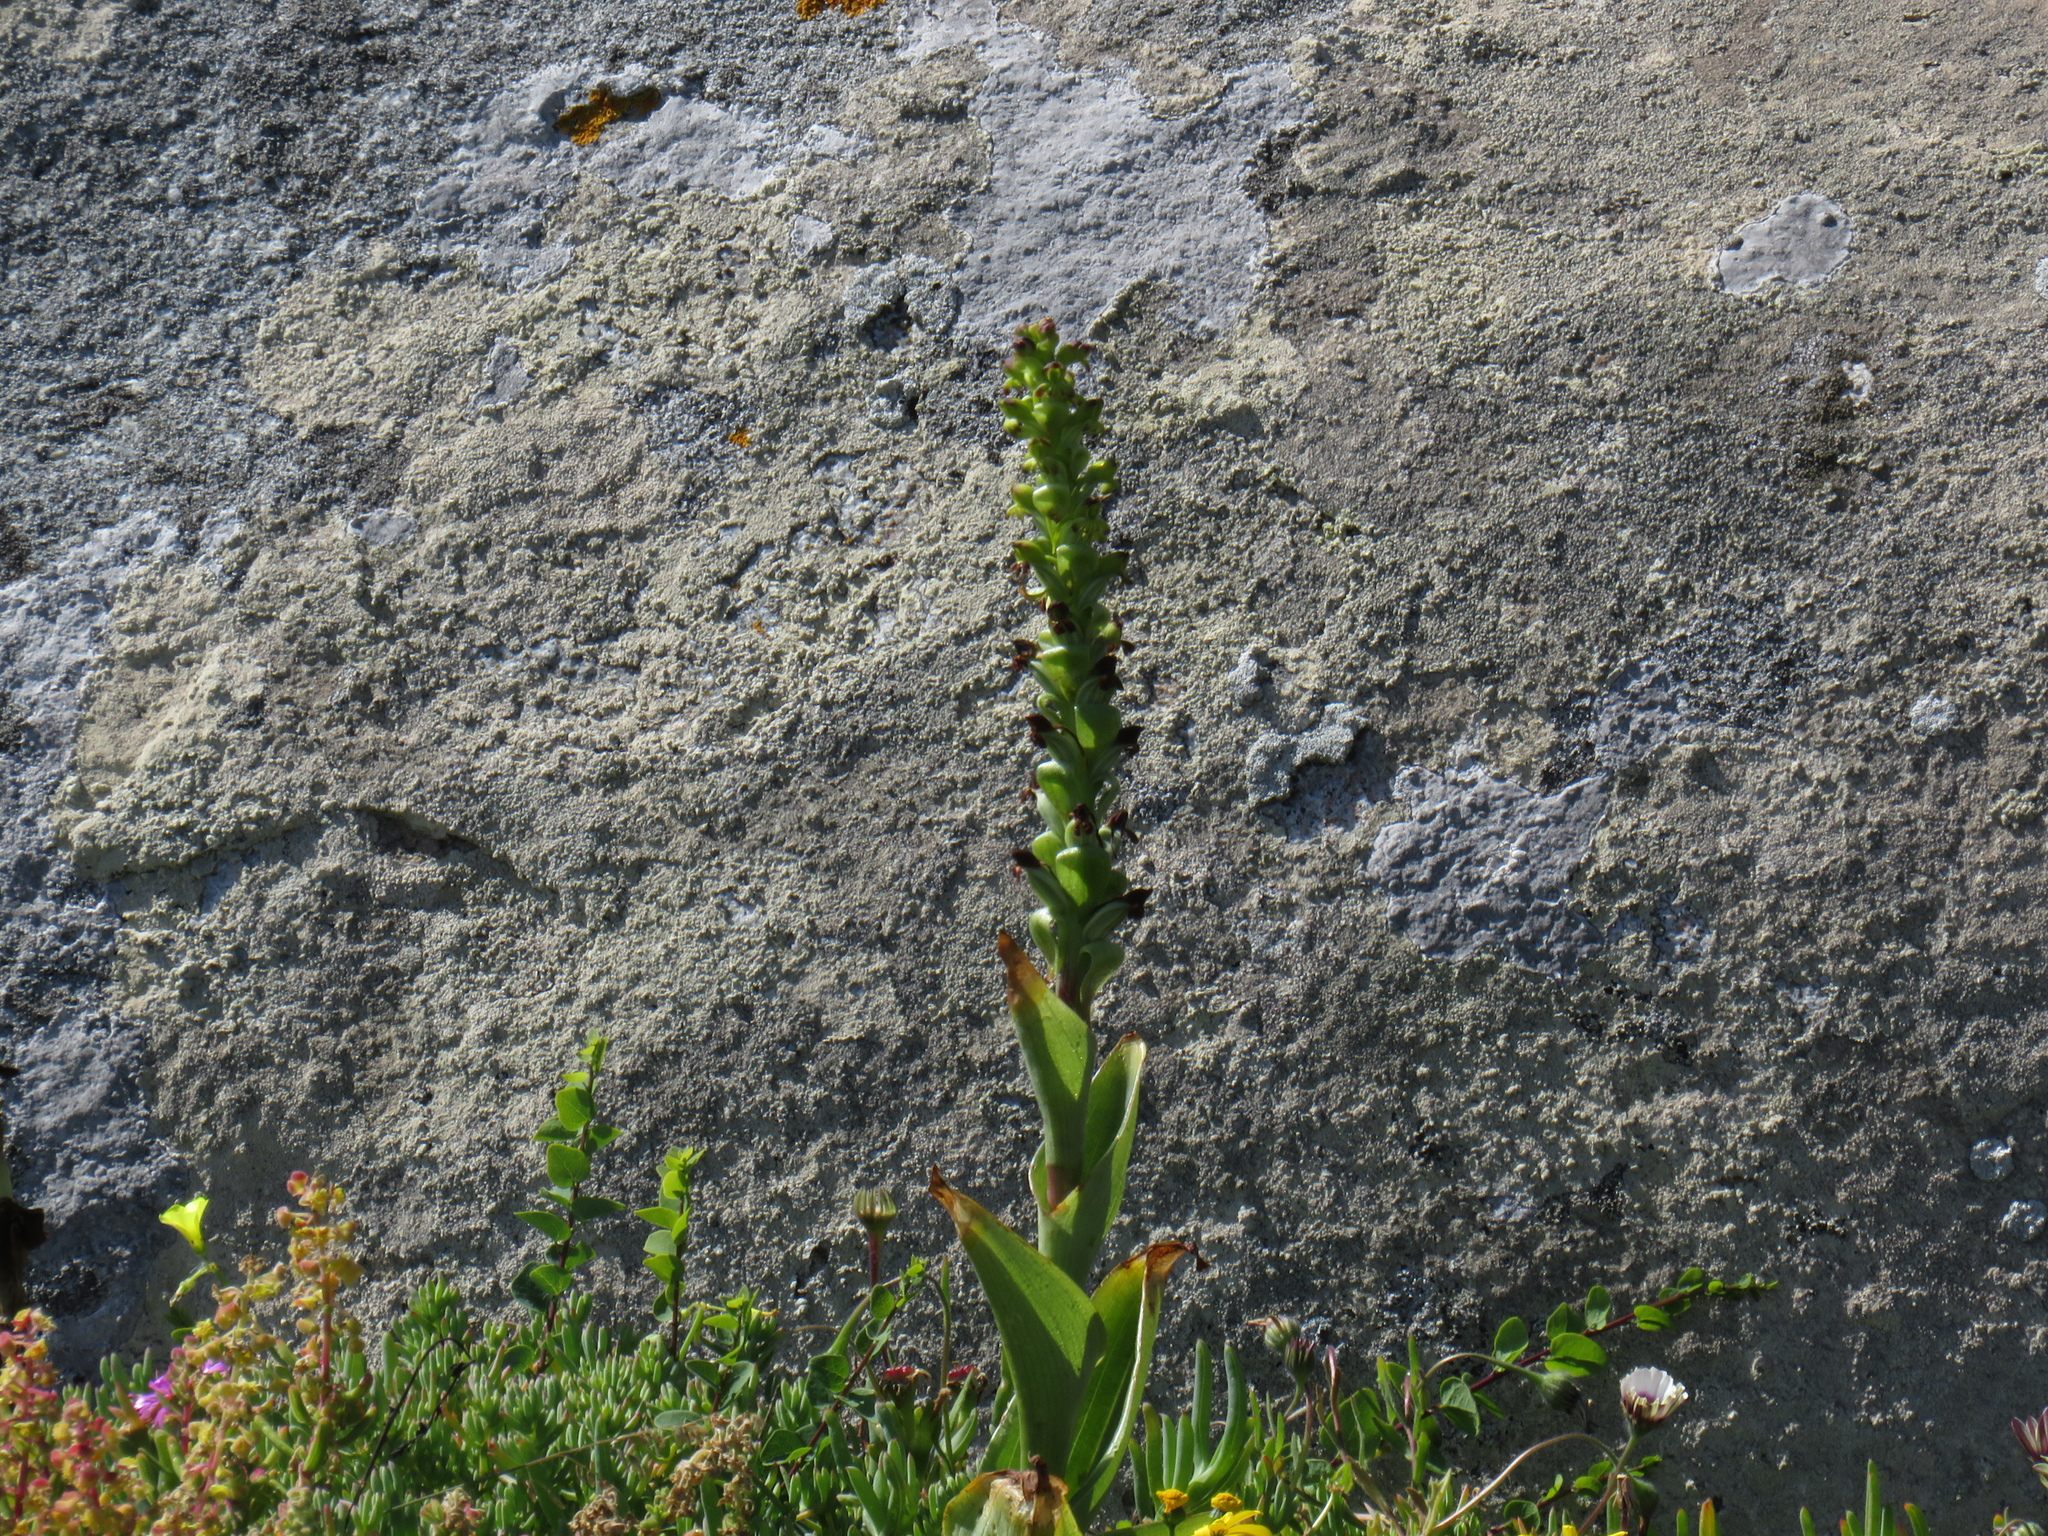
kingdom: Plantae
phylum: Tracheophyta
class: Liliopsida
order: Asparagales
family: Orchidaceae
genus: Satyrium
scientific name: Satyrium odorum
